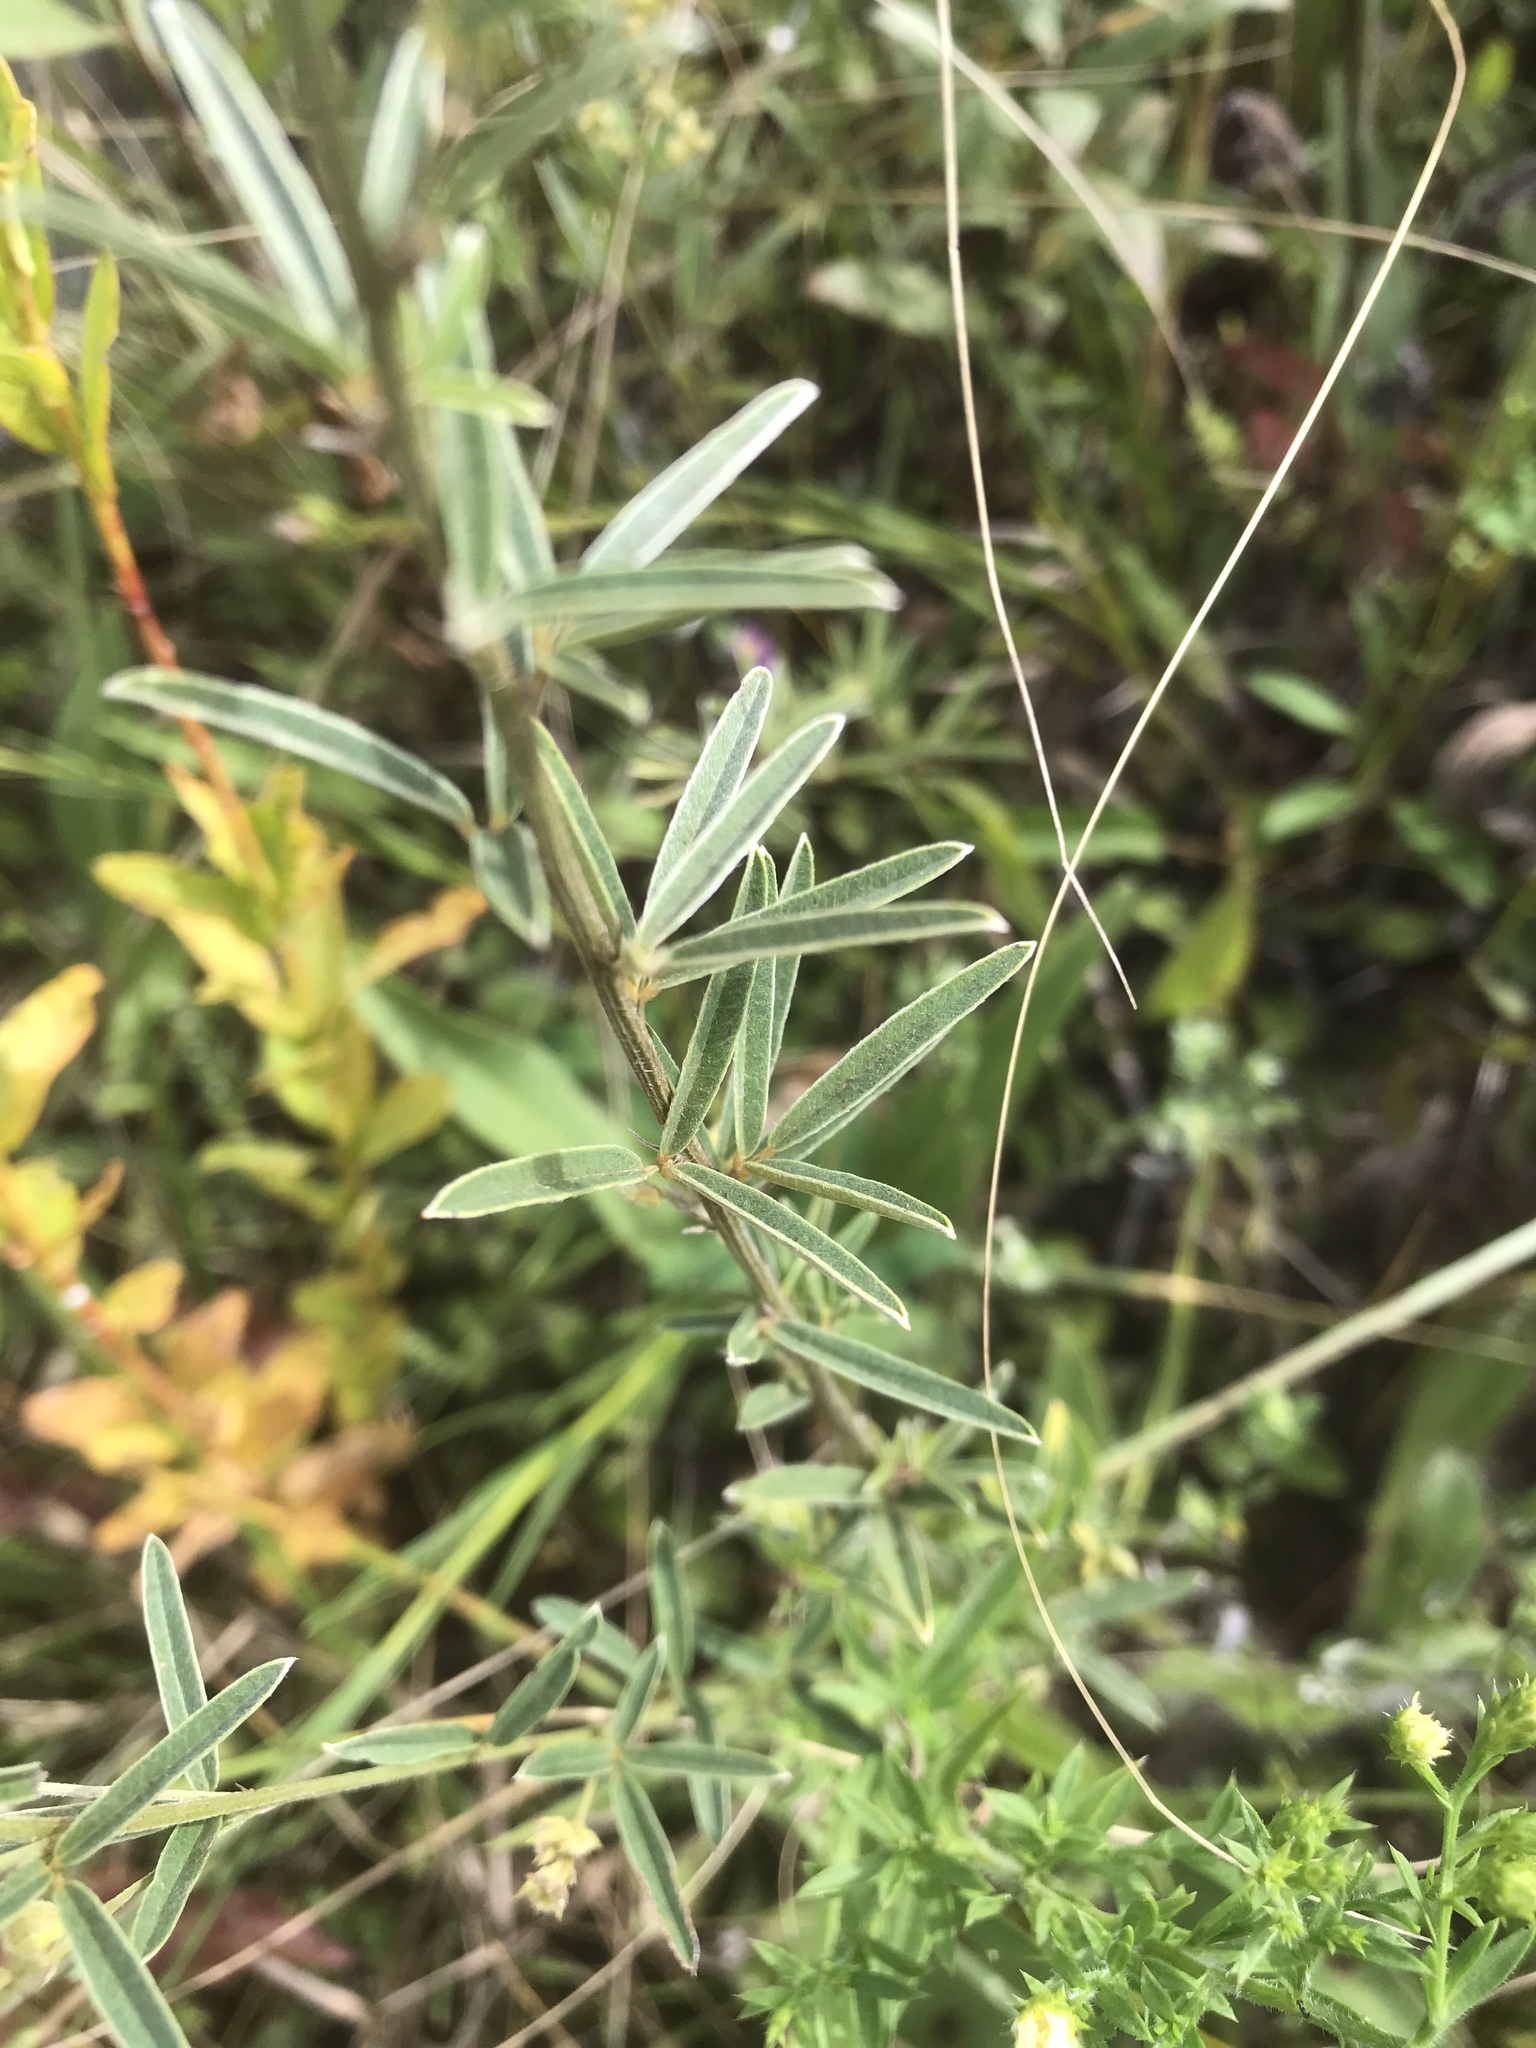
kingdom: Plantae
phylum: Tracheophyta
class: Magnoliopsida
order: Fabales
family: Fabaceae
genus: Lespedeza
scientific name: Lespedeza leptostachya
